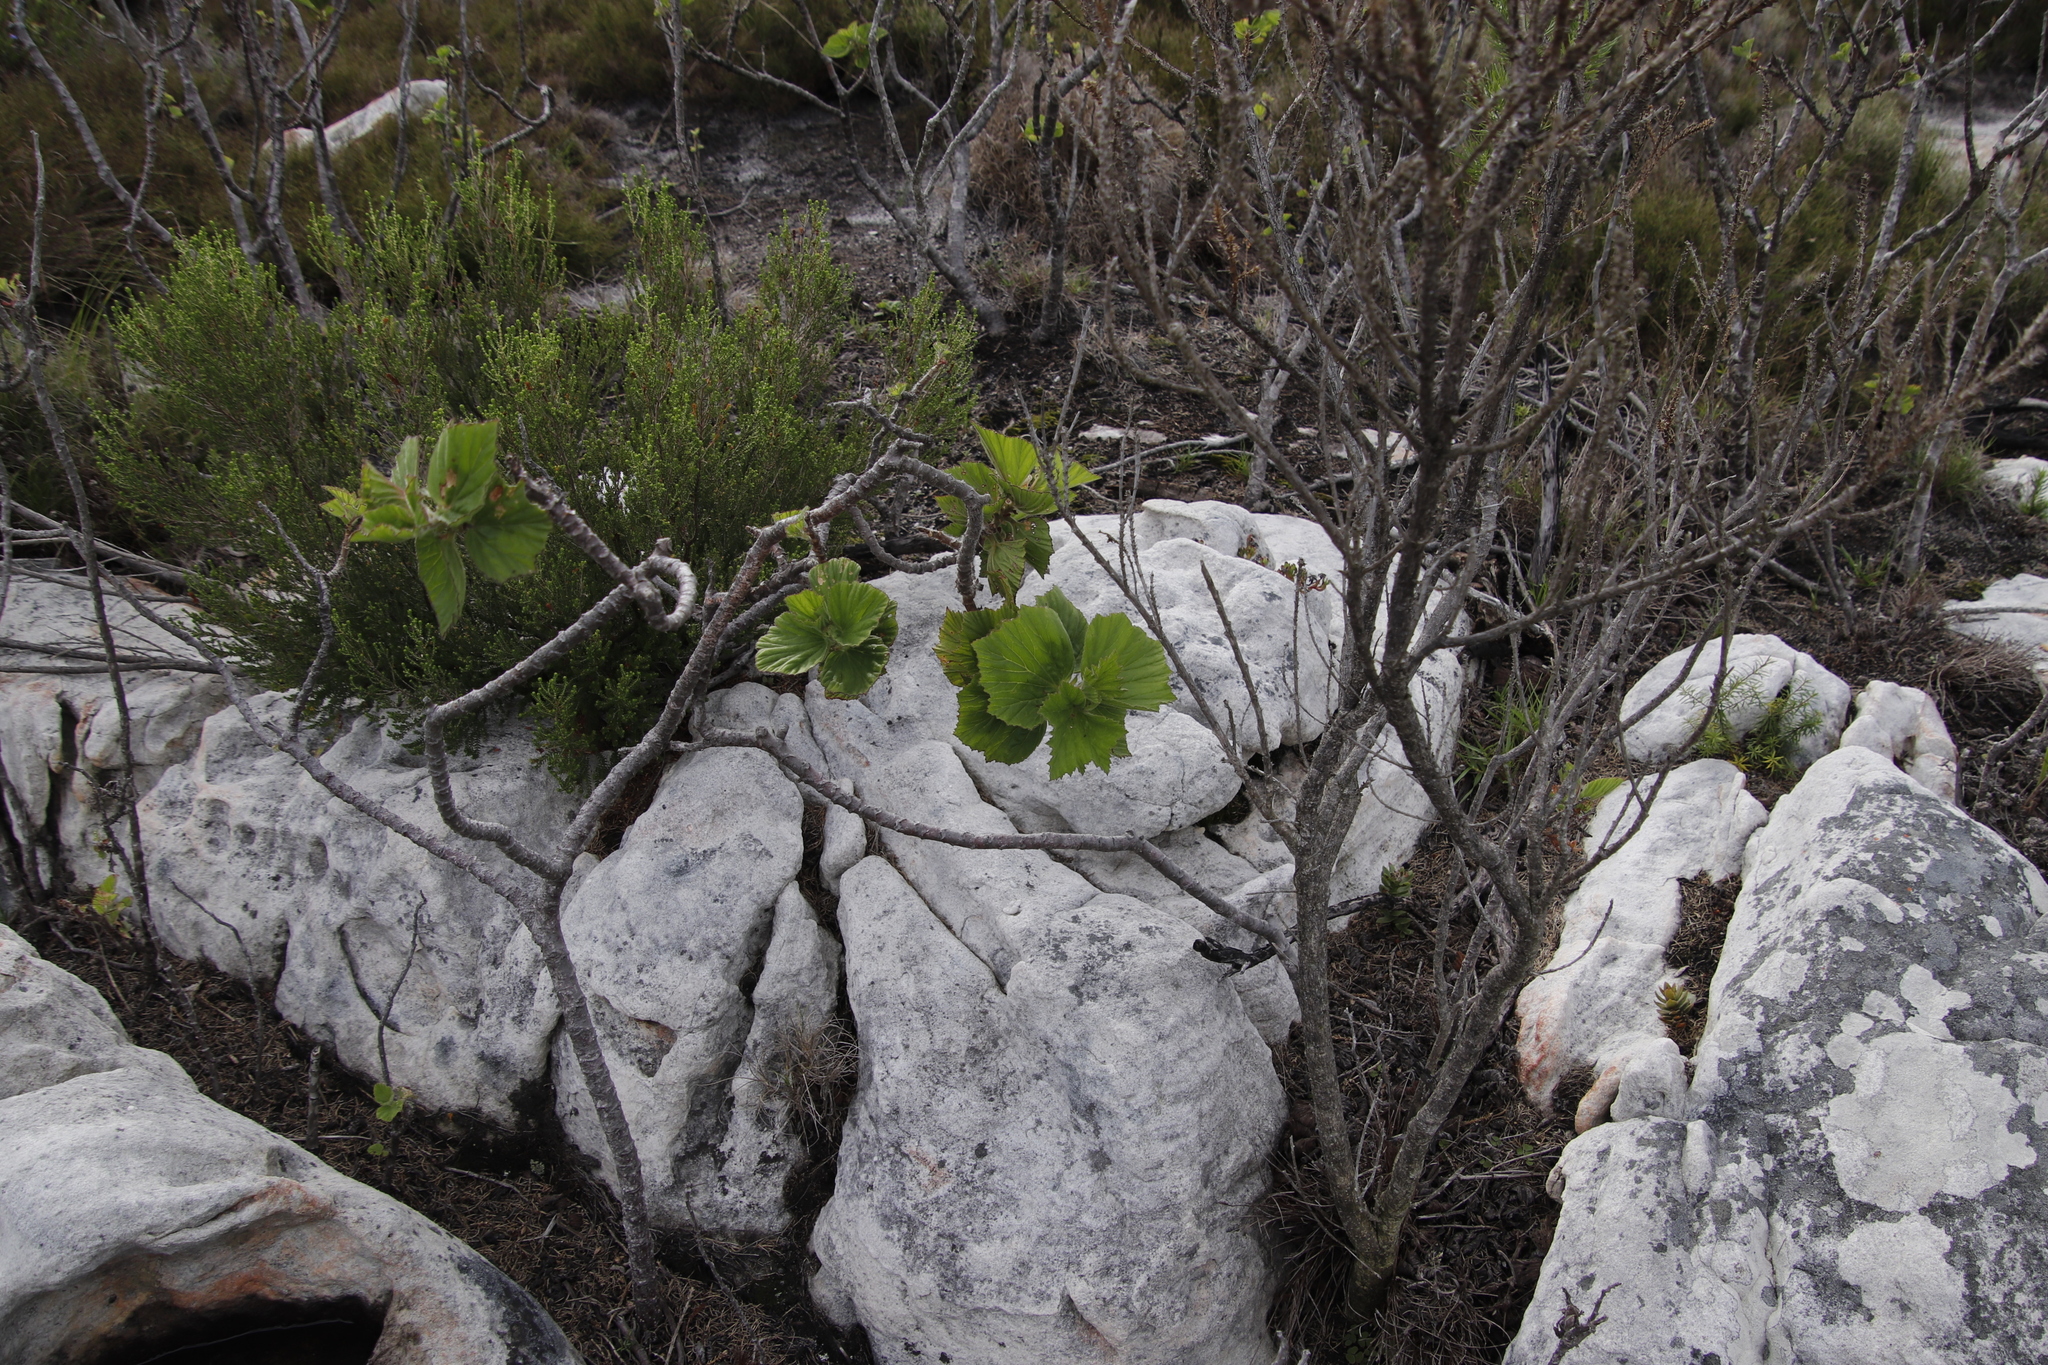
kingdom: Plantae
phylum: Tracheophyta
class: Magnoliopsida
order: Geraniales
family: Geraniaceae
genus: Pelargonium
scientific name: Pelargonium cucullatum
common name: Tree pelargonium
